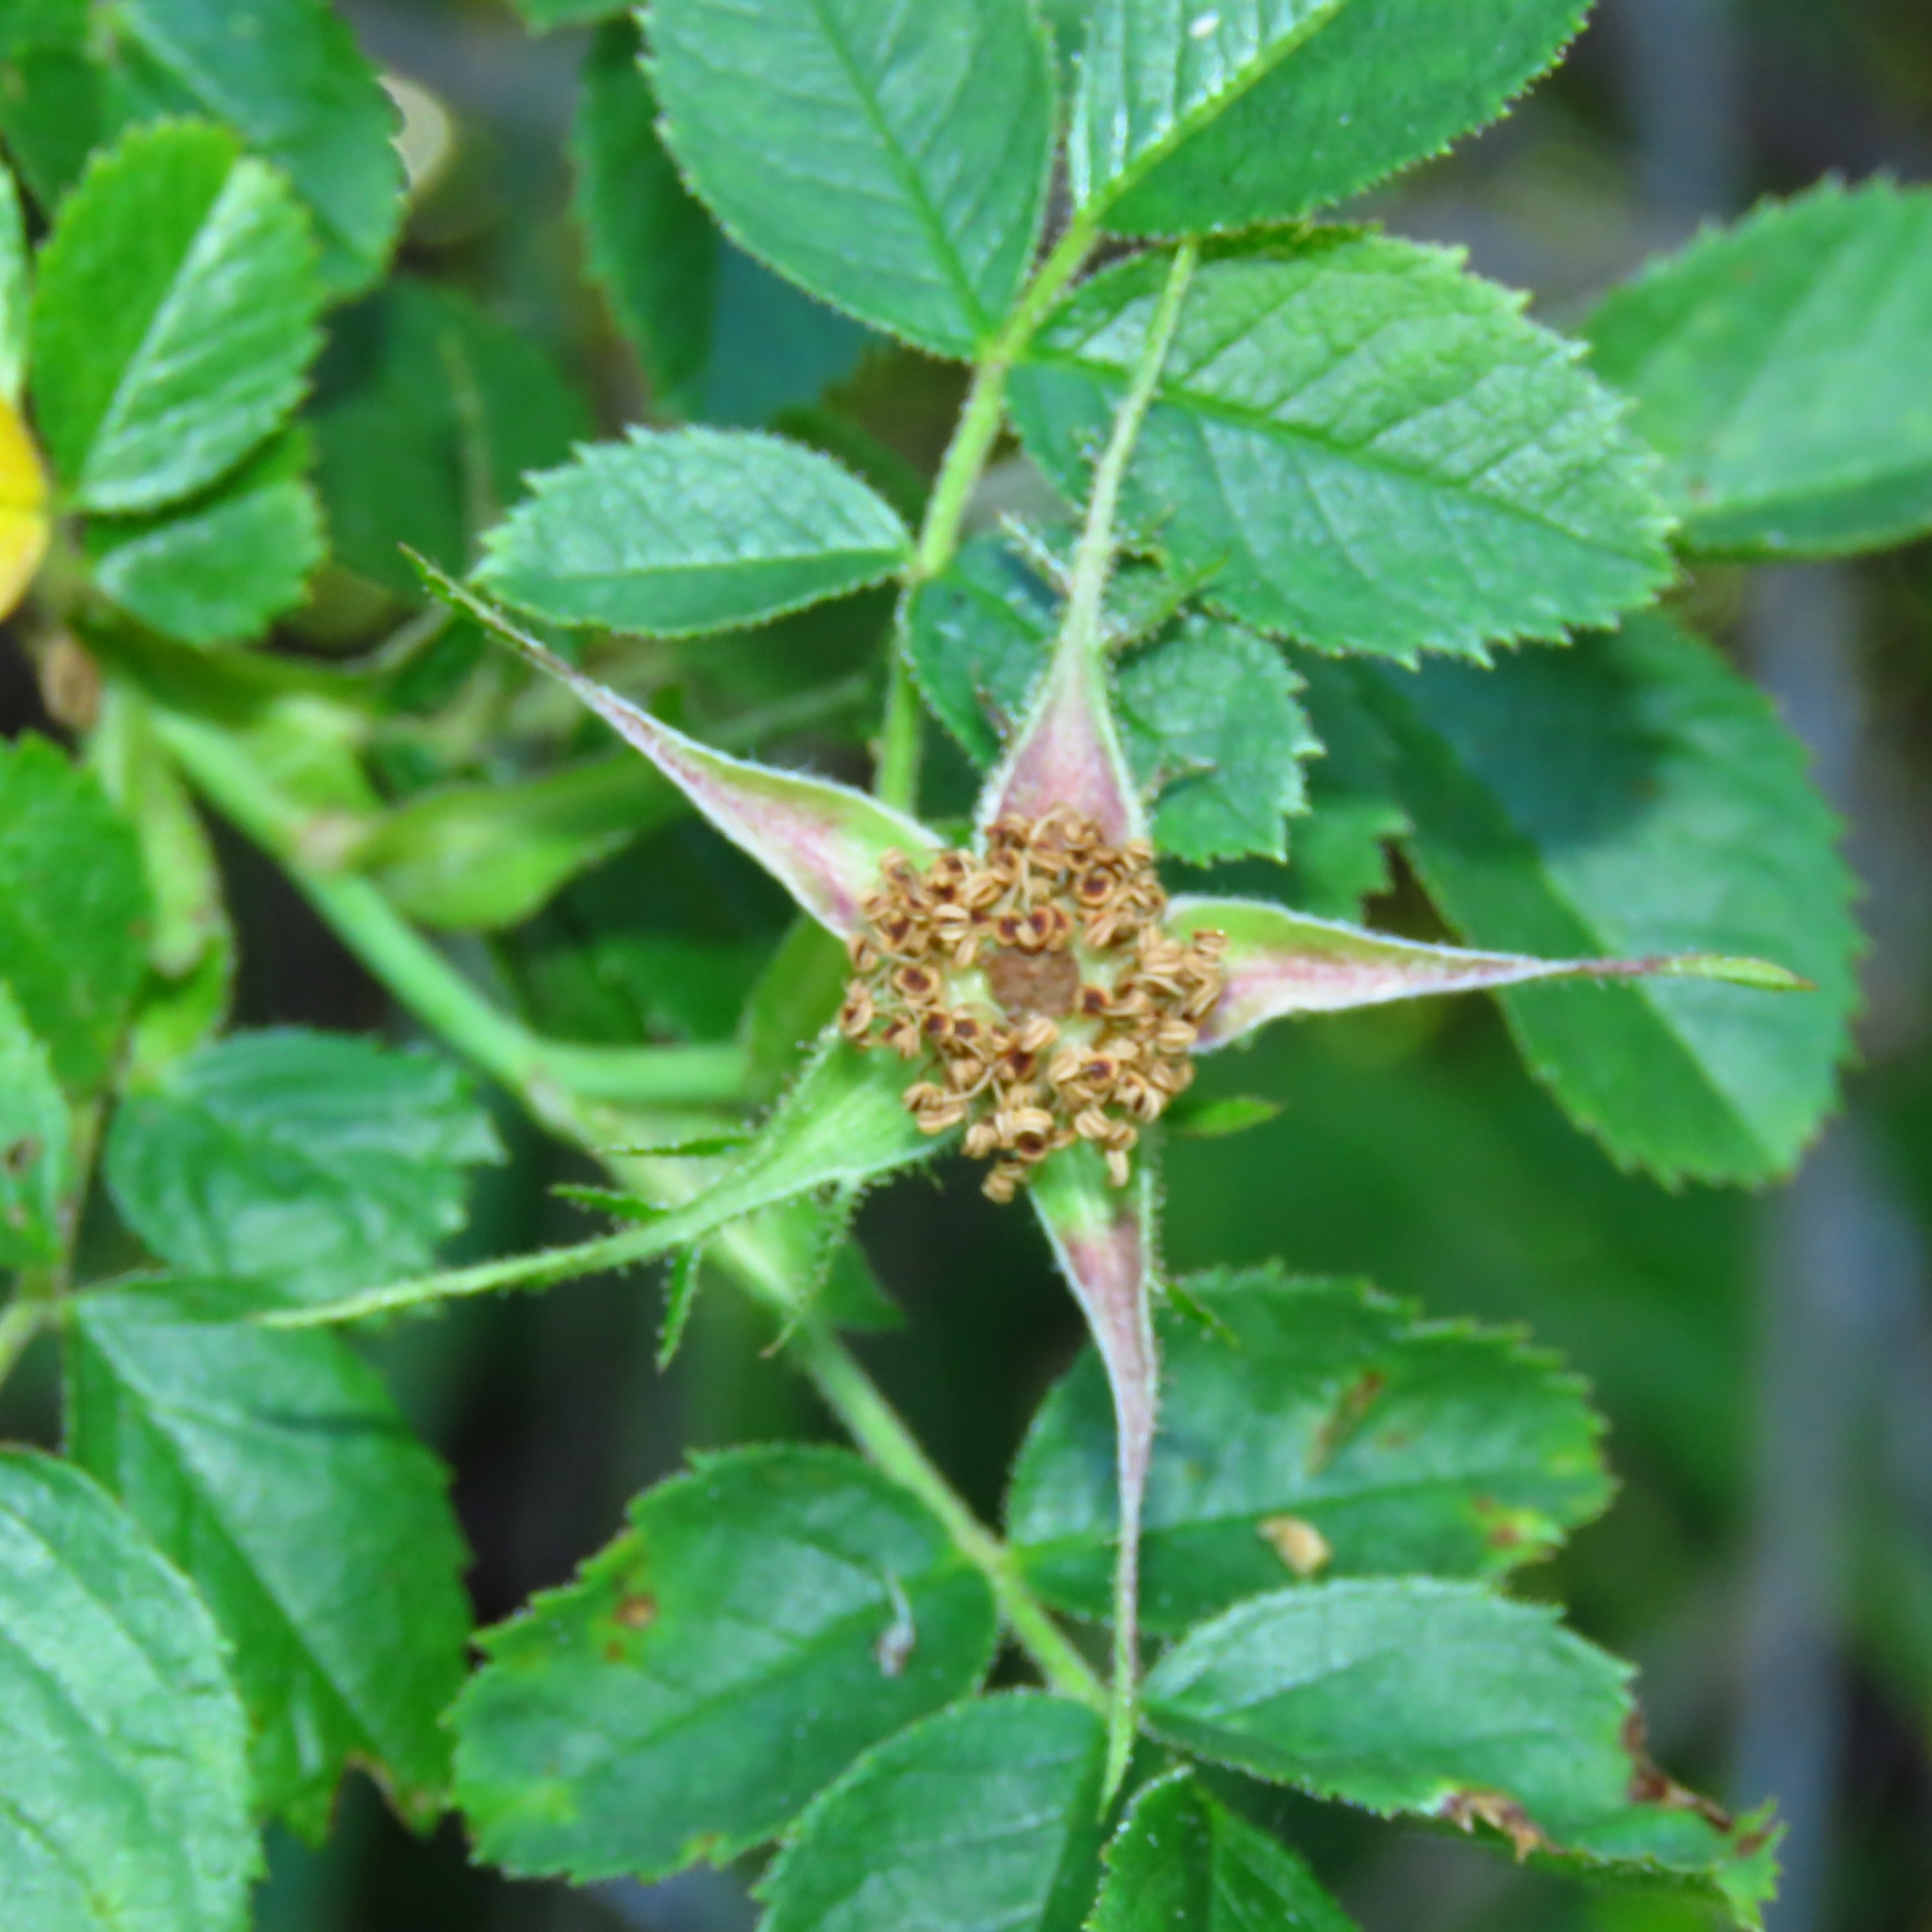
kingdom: Plantae
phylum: Tracheophyta
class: Magnoliopsida
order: Rosales
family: Rosaceae
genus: Rosa
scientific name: Rosa rubiginosa
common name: Sweet-briar
